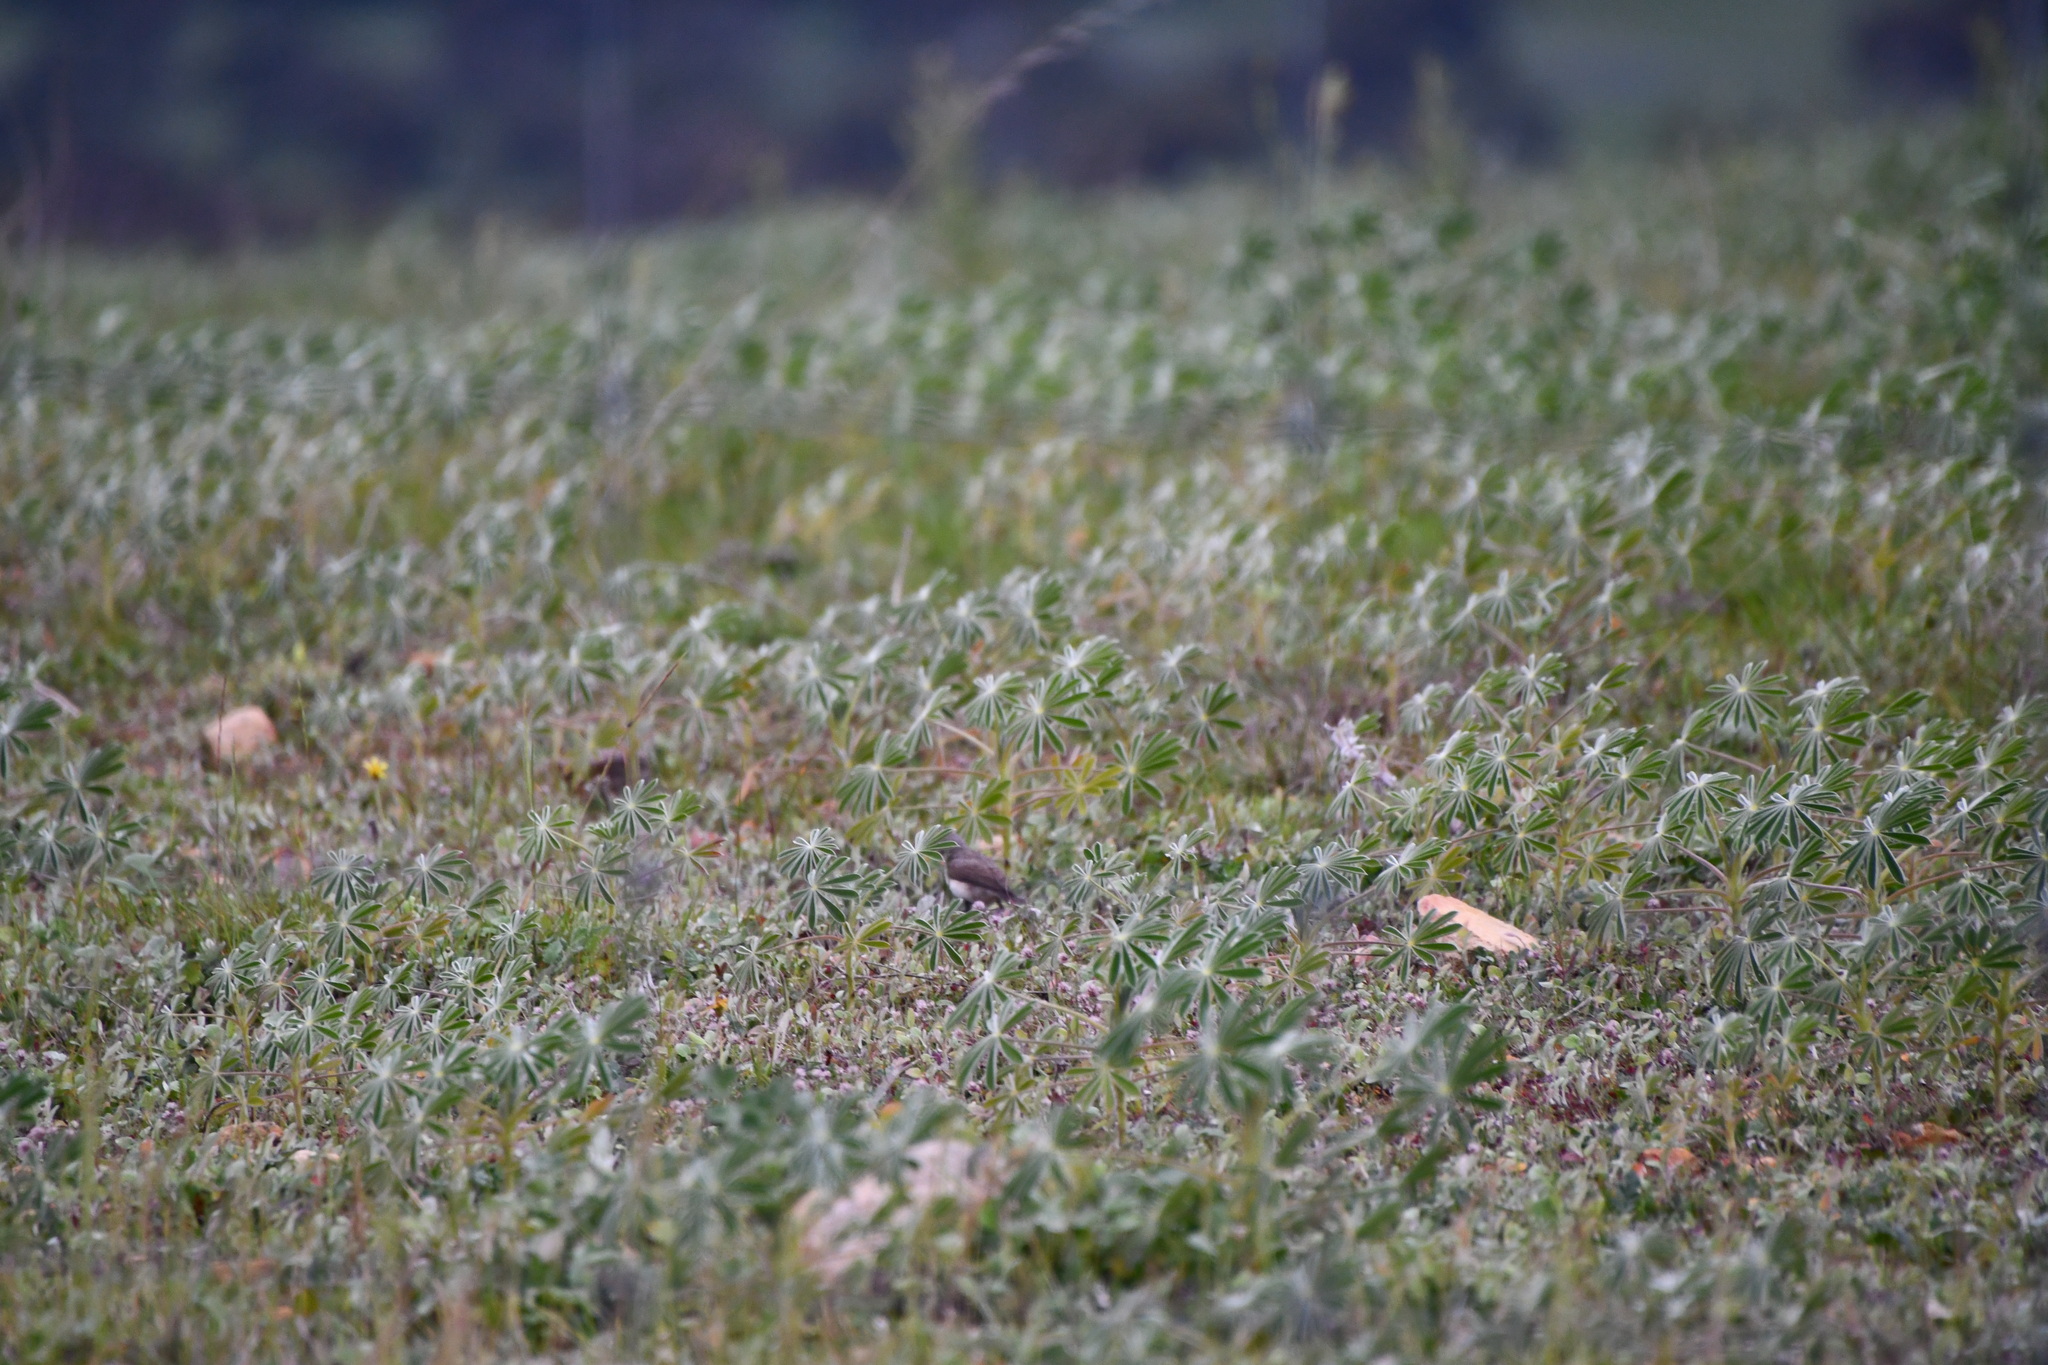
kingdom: Animalia
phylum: Chordata
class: Aves
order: Passeriformes
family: Meliphagidae
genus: Epthianura
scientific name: Epthianura albifrons
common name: White-fronted chat
